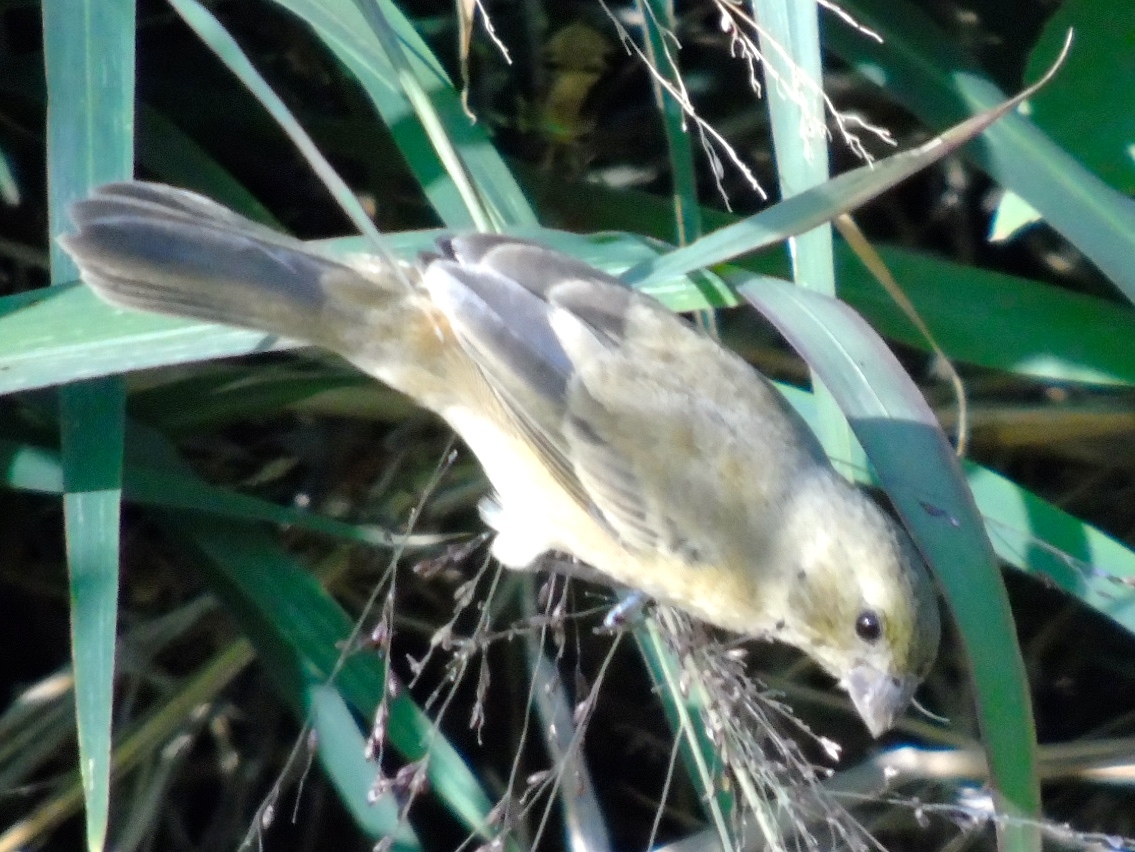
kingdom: Animalia
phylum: Chordata
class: Aves
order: Passeriformes
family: Thraupidae
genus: Sporophila
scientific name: Sporophila torqueola
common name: White-collared seedeater
